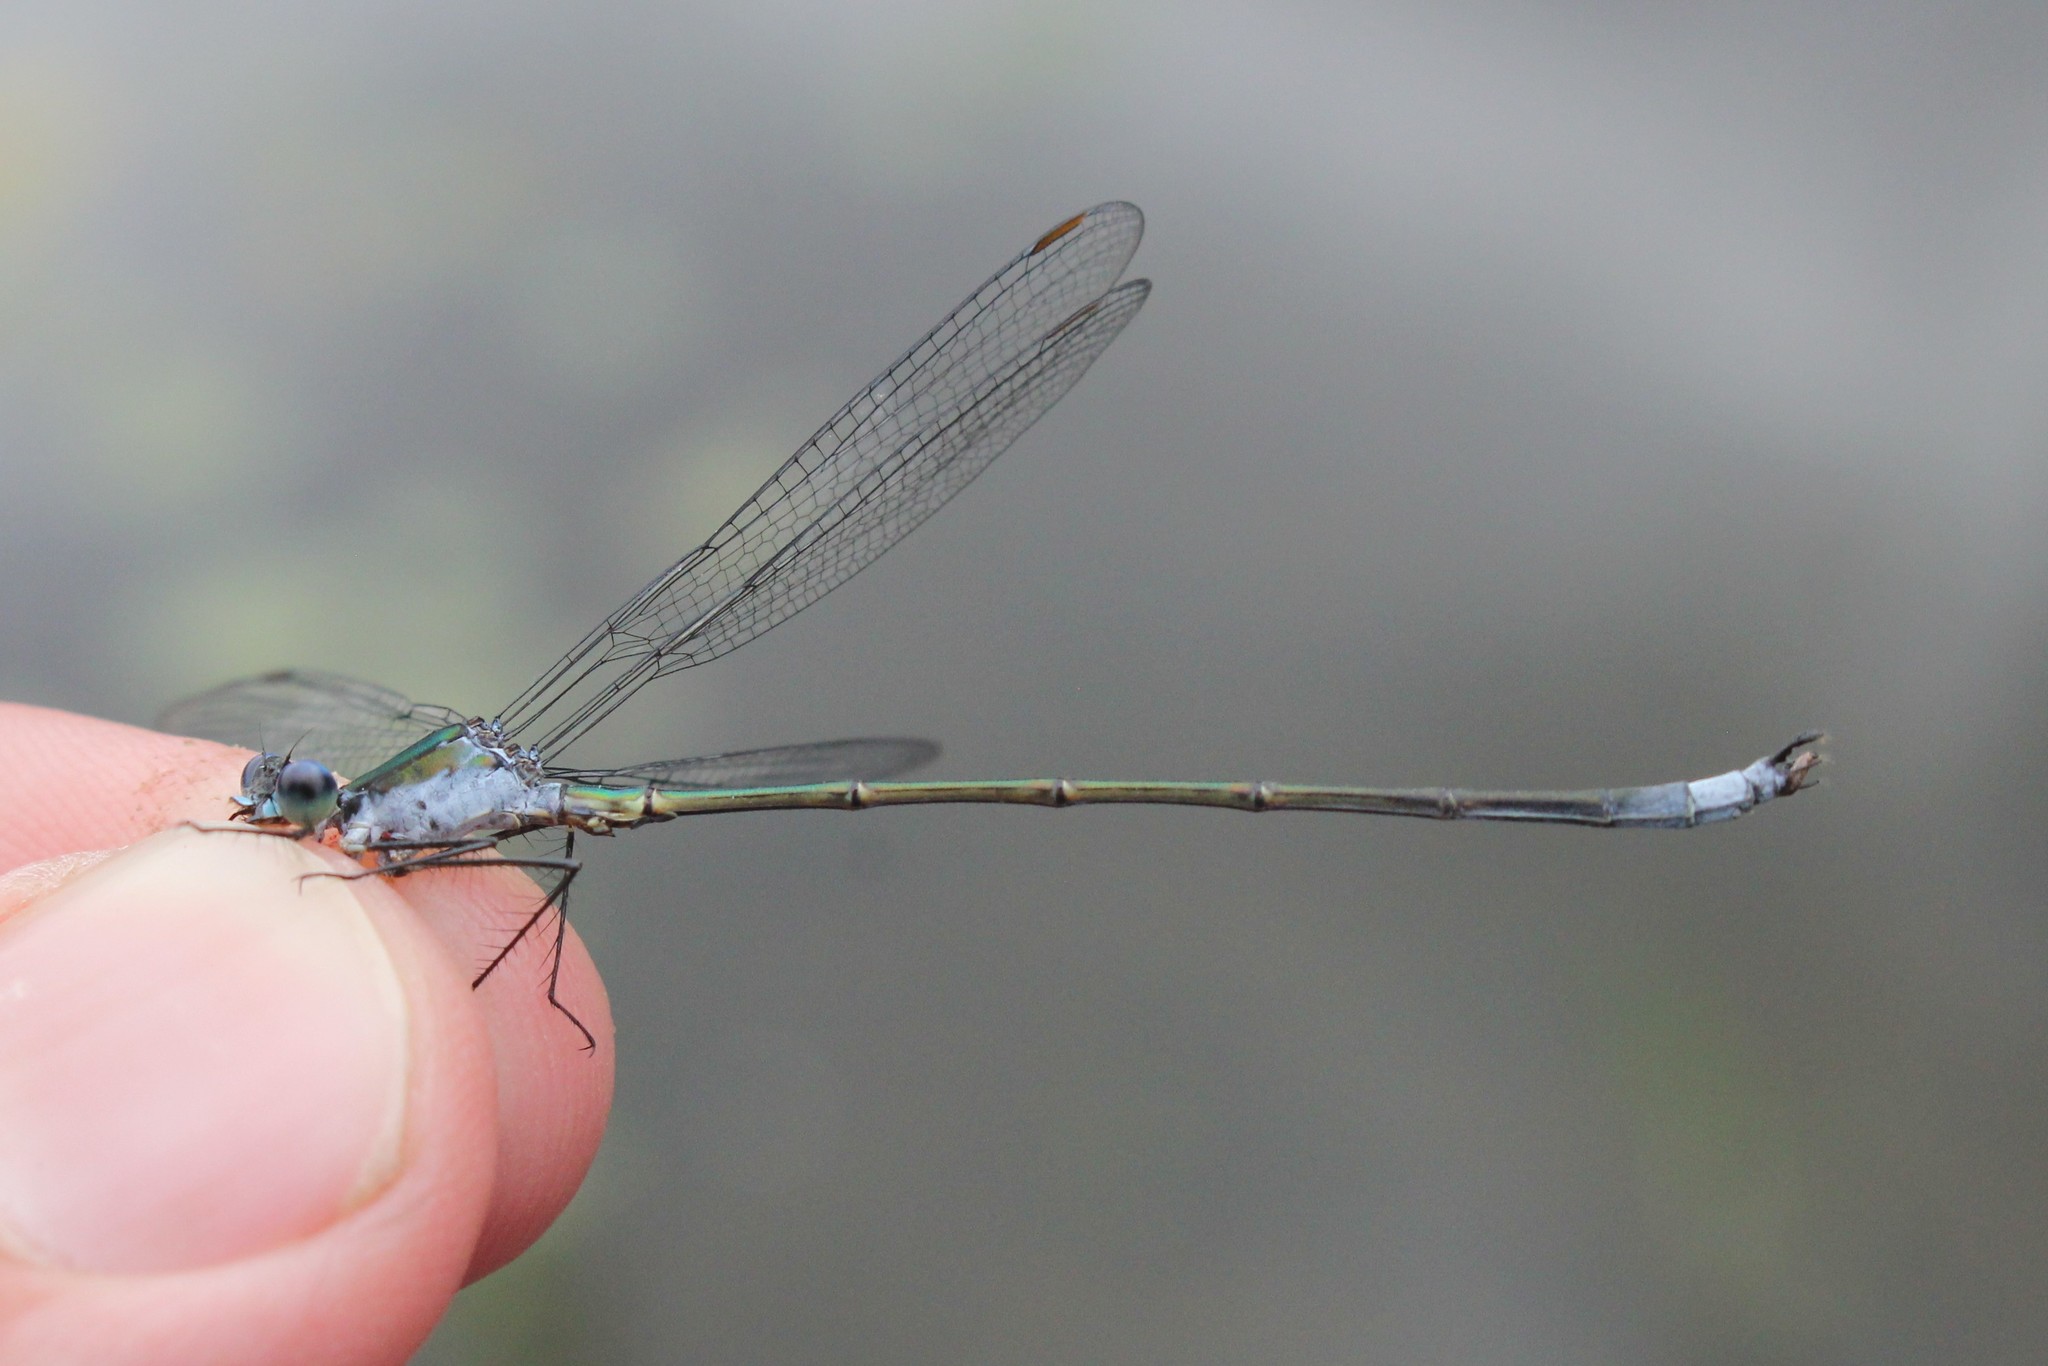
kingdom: Animalia
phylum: Arthropoda
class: Insecta
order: Odonata
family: Lestidae
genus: Lestes
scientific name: Lestes vigilax
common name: Swamp spreadwing
